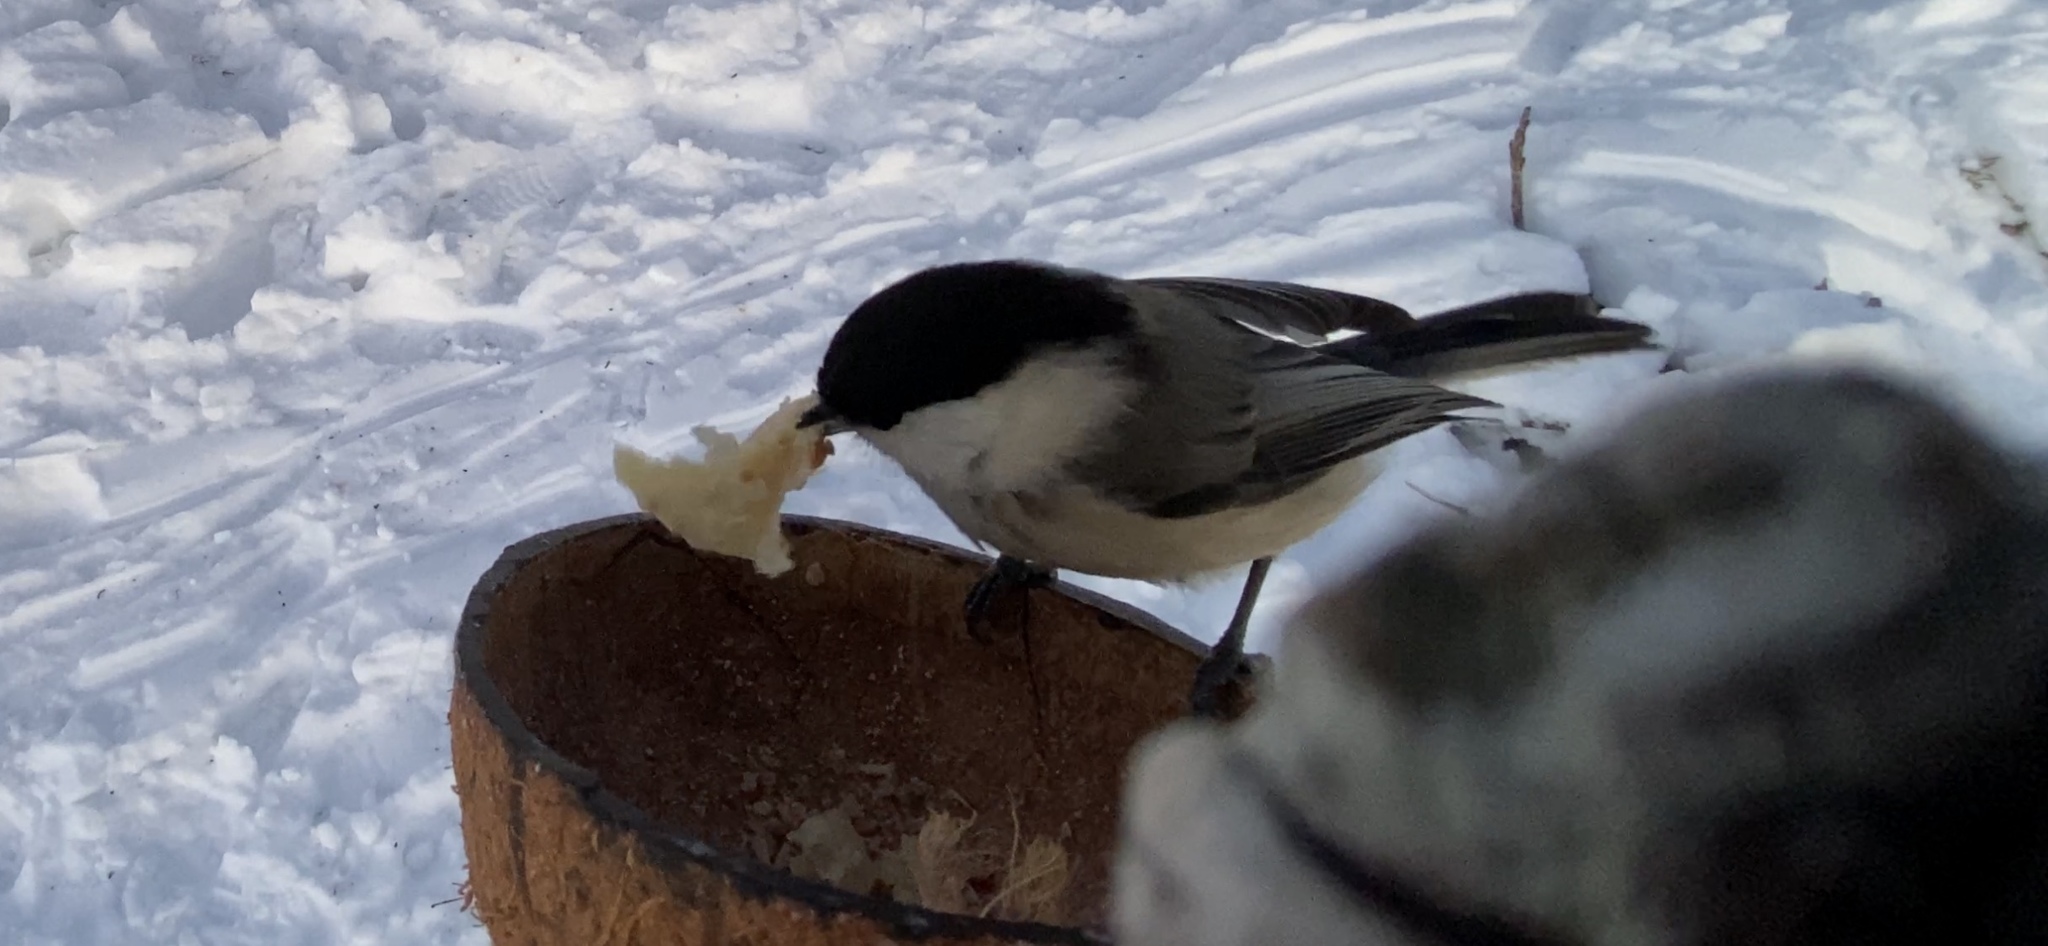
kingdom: Animalia
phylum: Chordata
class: Aves
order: Passeriformes
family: Paridae
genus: Poecile
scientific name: Poecile montanus
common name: Willow tit
